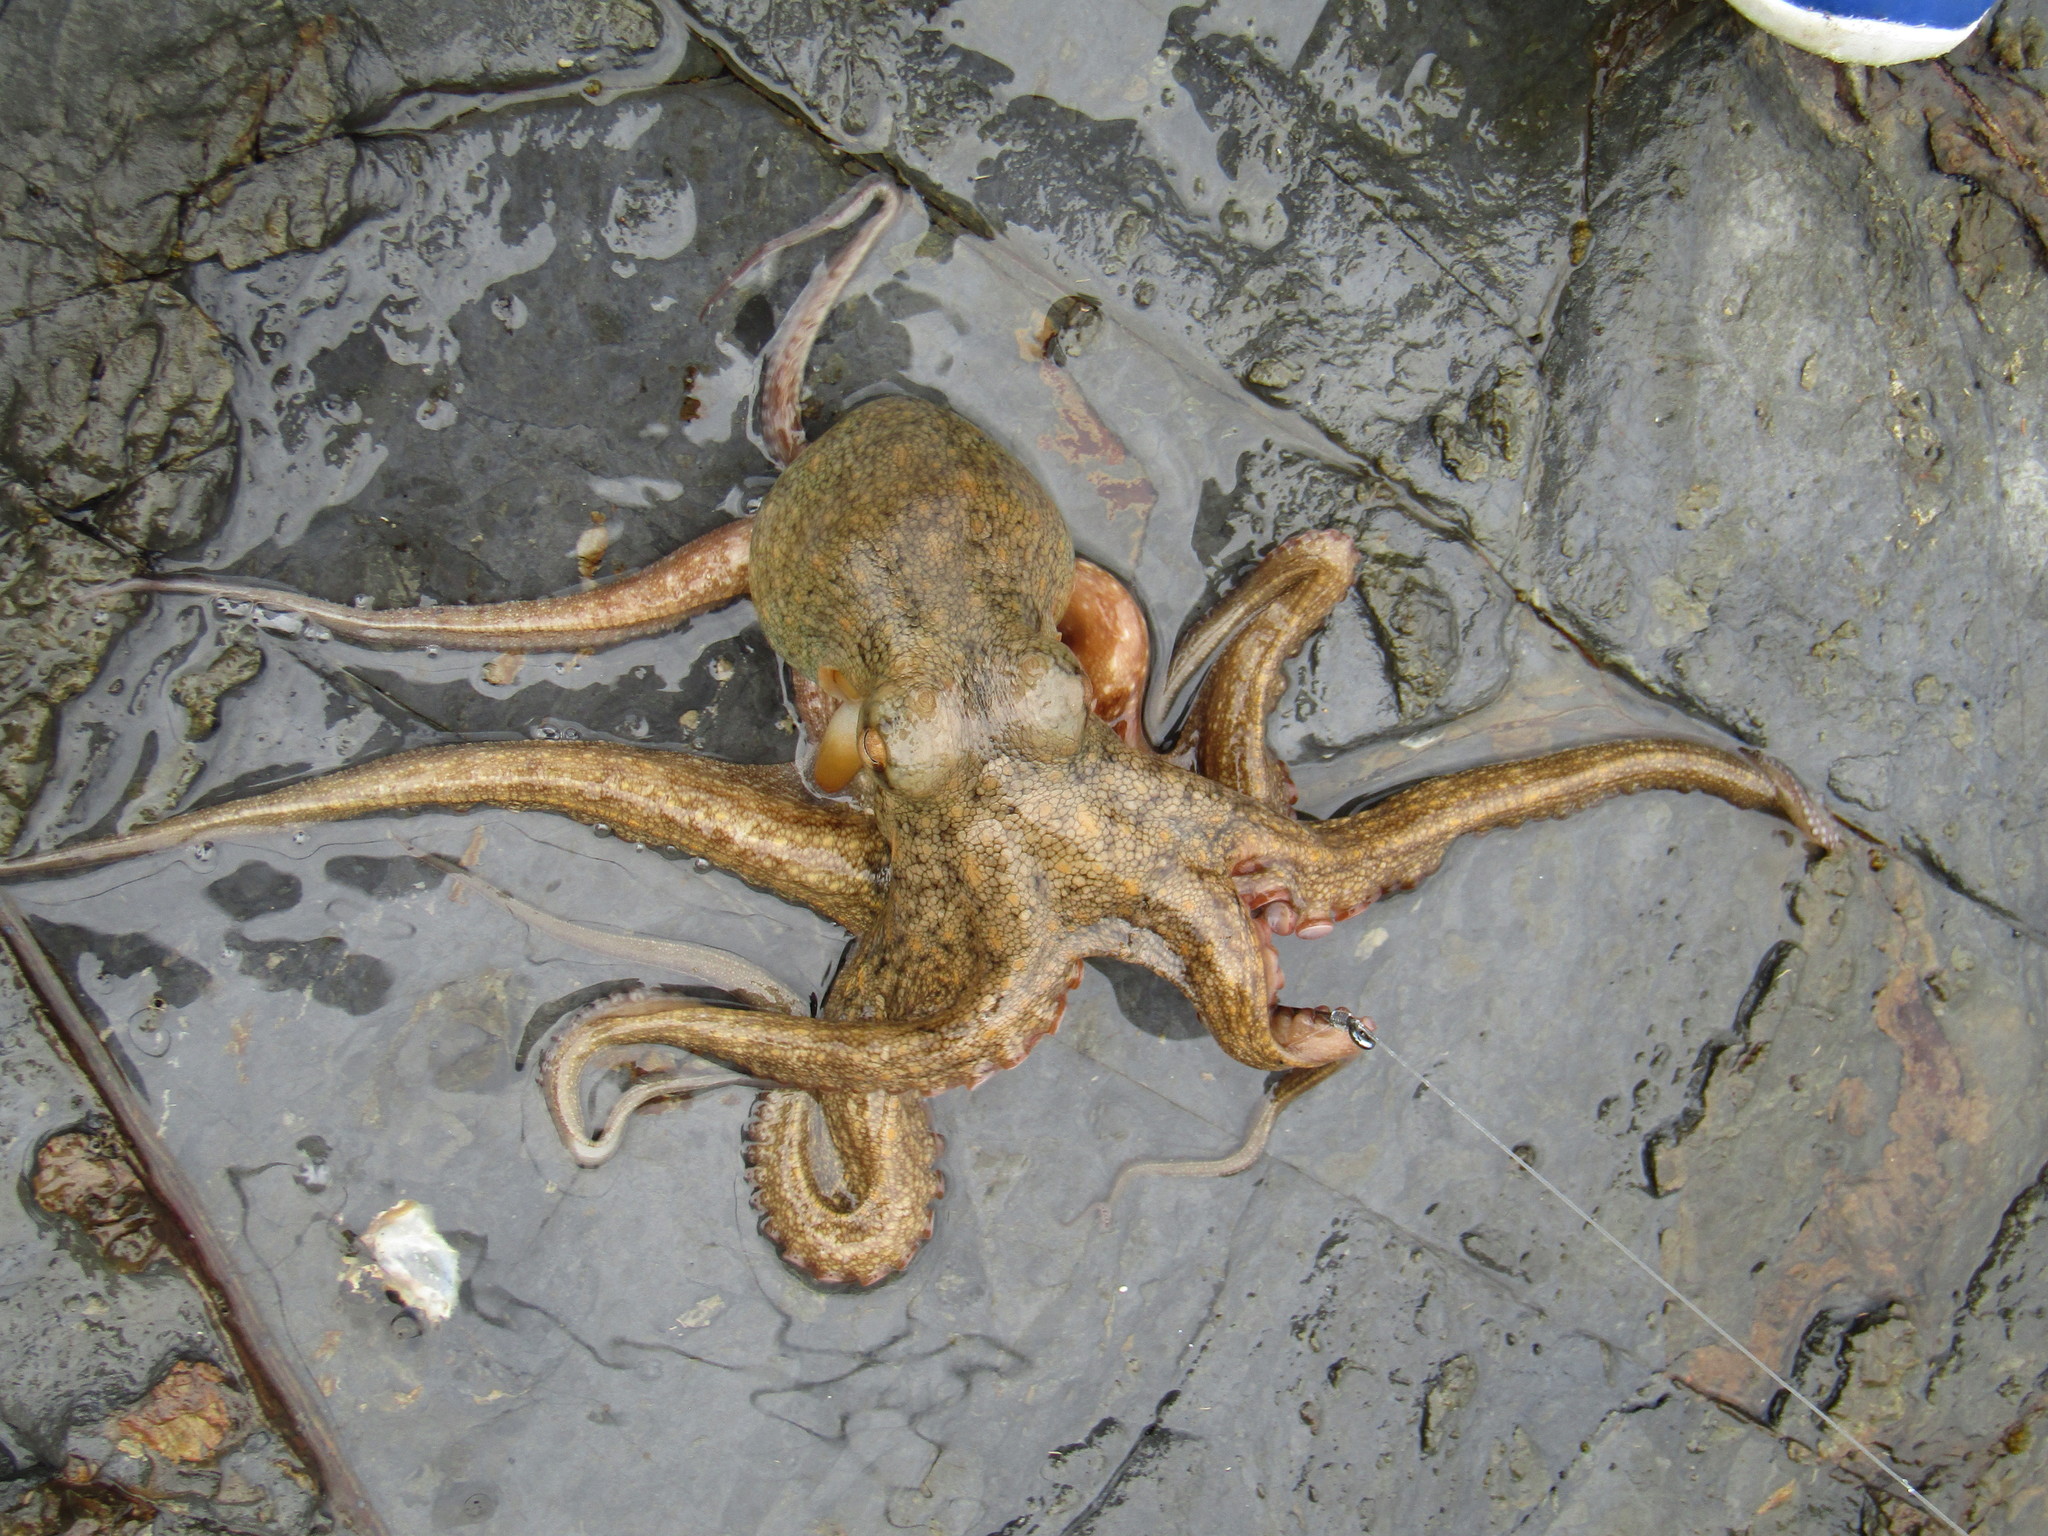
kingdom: Animalia
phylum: Mollusca
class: Cephalopoda
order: Octopoda
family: Octopodidae
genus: Octopus
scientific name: Octopus tetricus
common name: Sydney octopus
